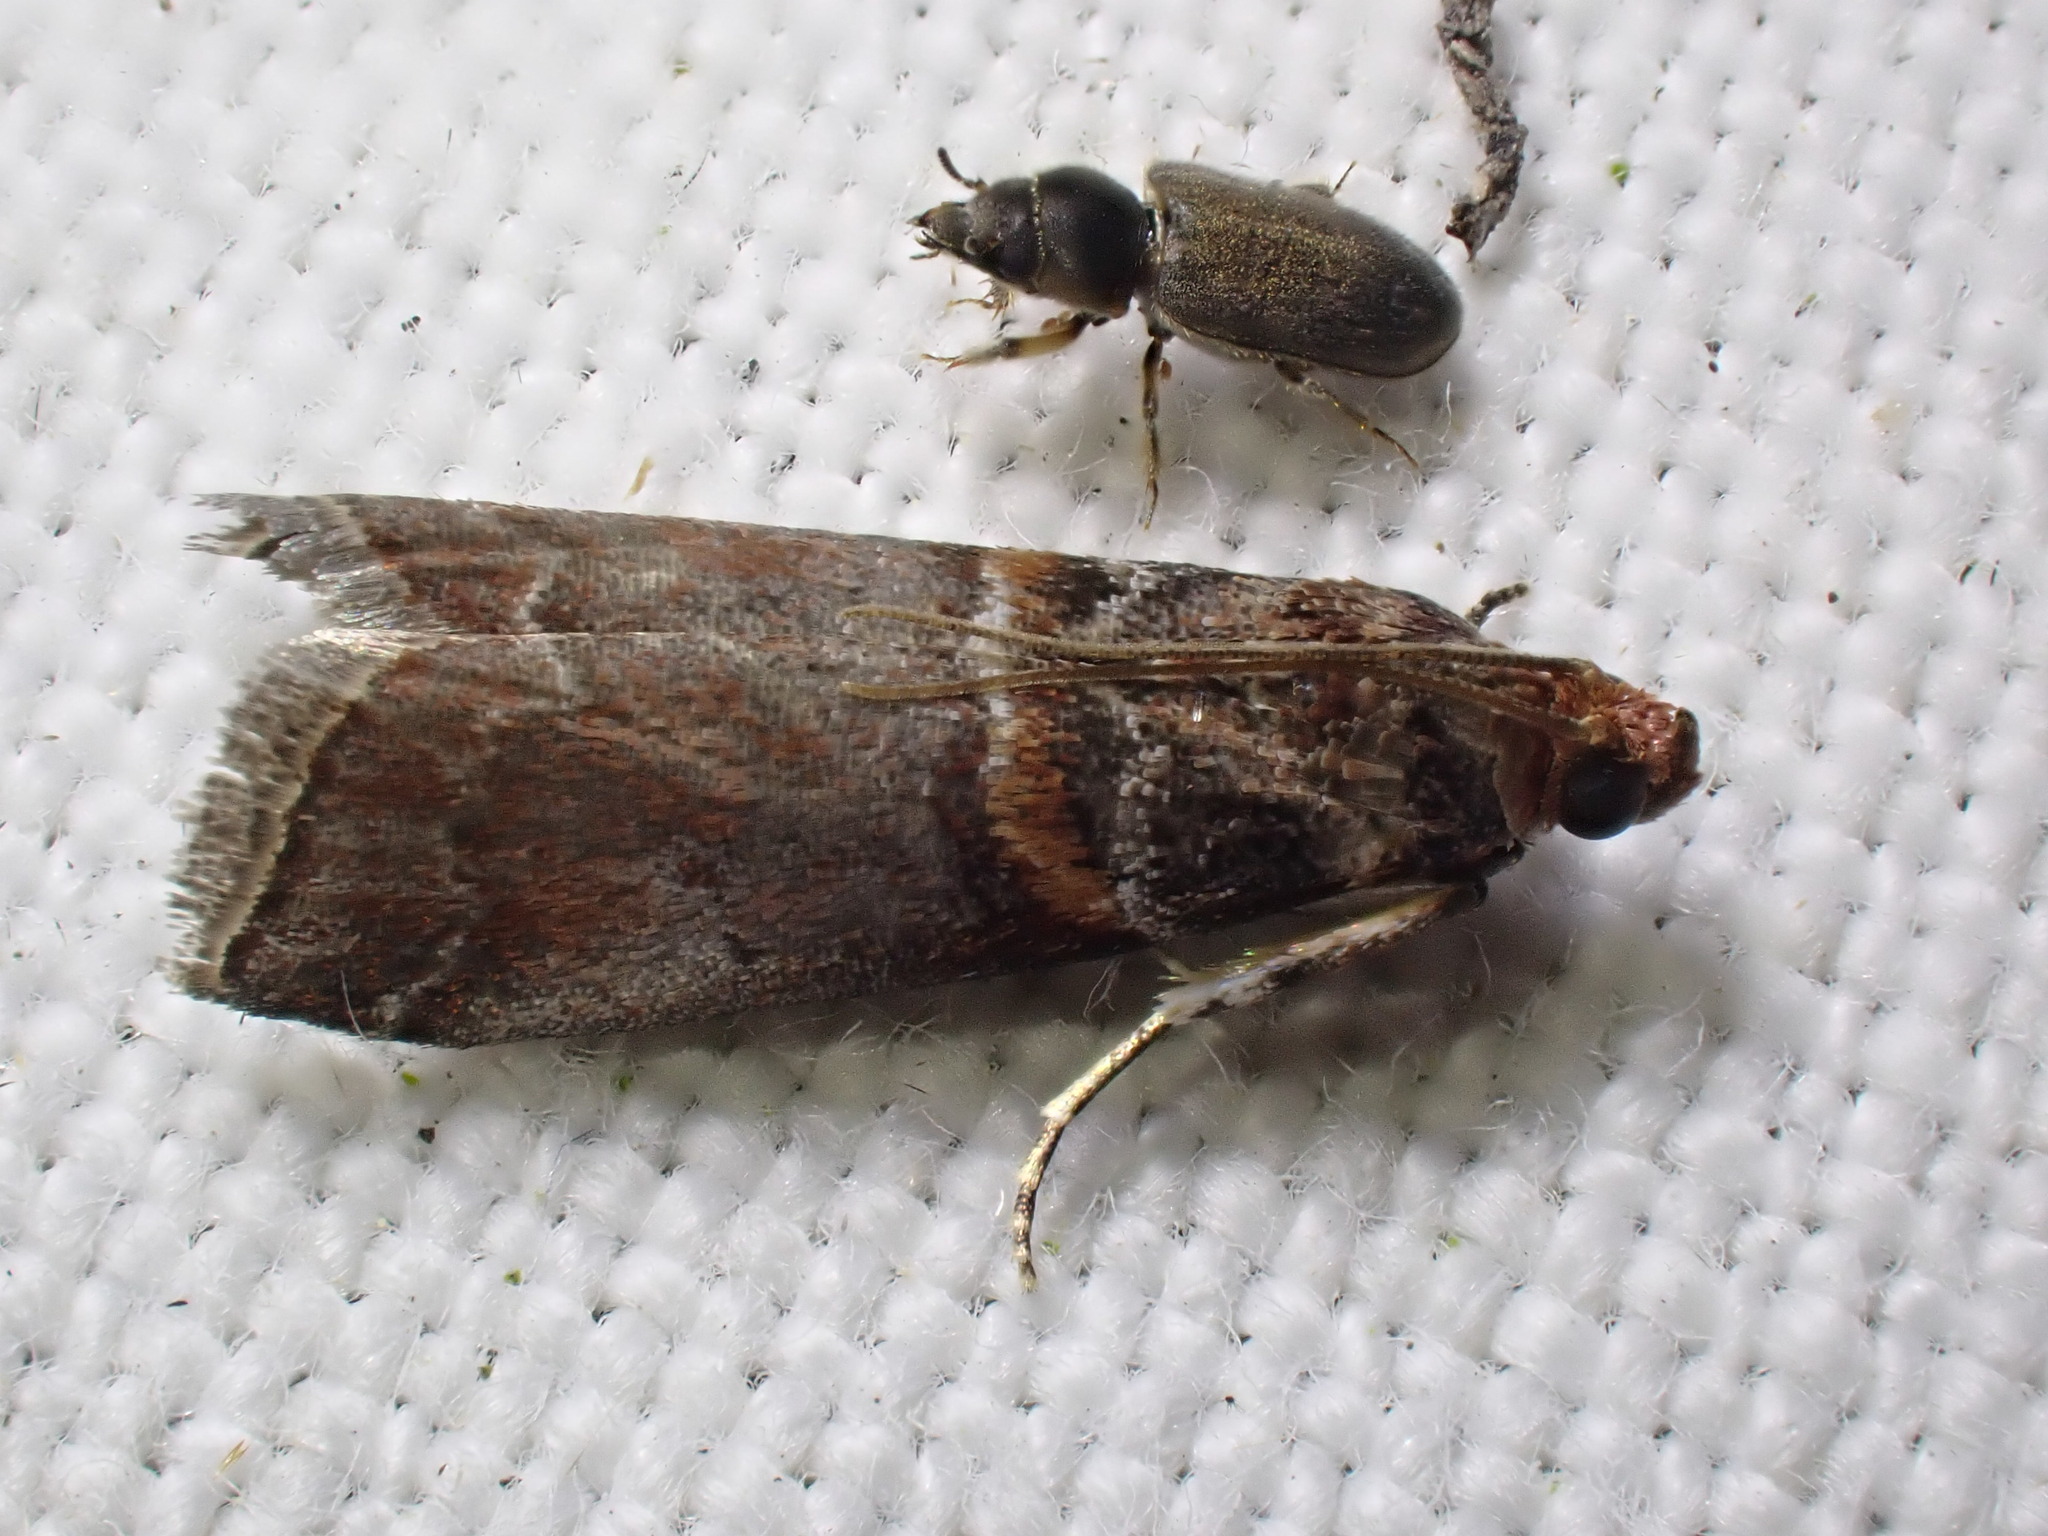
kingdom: Animalia
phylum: Arthropoda
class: Insecta
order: Lepidoptera
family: Pyralidae
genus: Acrobasis
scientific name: Acrobasis advenella
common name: Grey knot-horn
